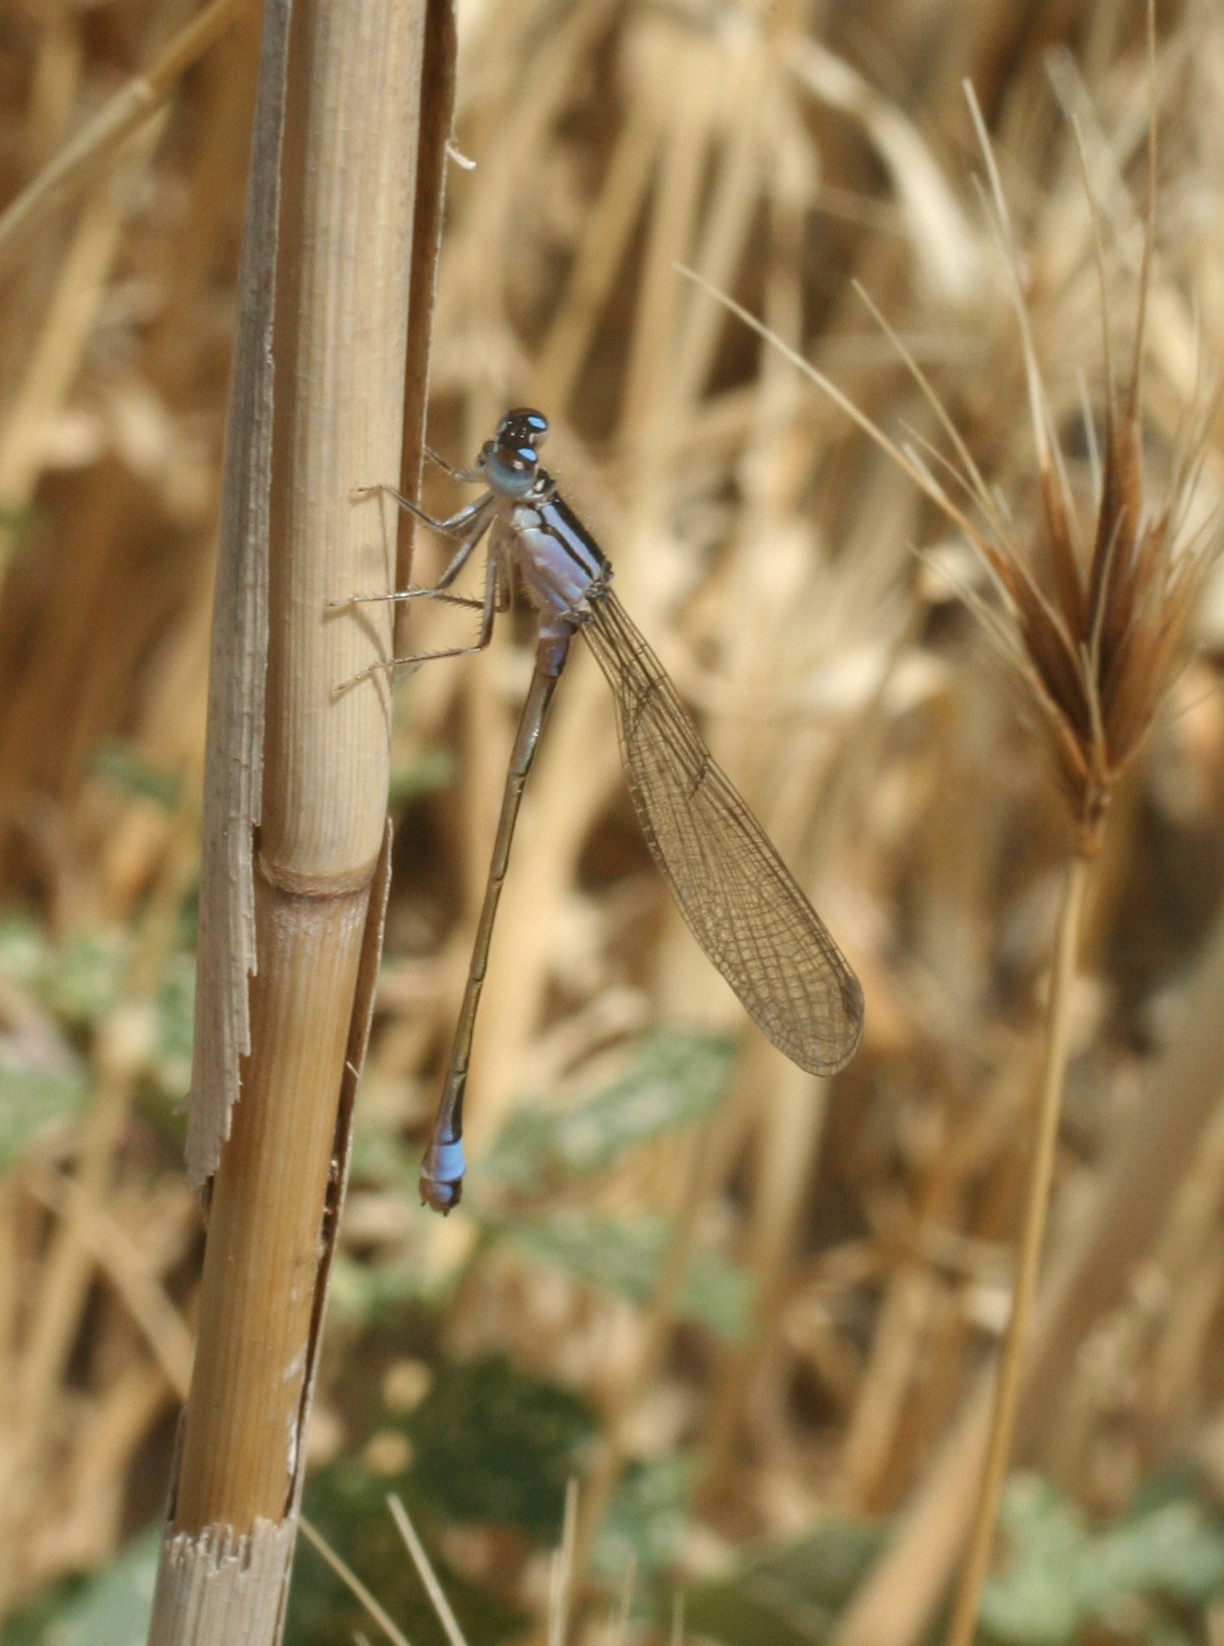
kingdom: Animalia
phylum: Arthropoda
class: Insecta
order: Odonata
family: Coenagrionidae
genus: Ischnura
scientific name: Ischnura elegans
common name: Blue-tailed damselfly
